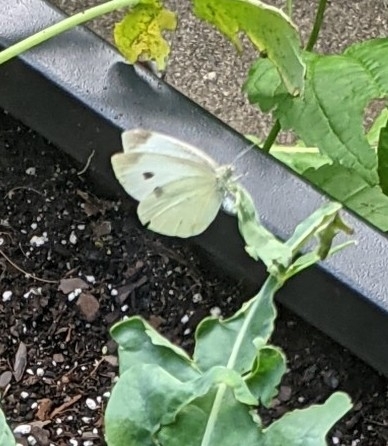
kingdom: Animalia
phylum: Arthropoda
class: Insecta
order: Lepidoptera
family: Pieridae
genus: Pieris
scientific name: Pieris rapae
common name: Small white
